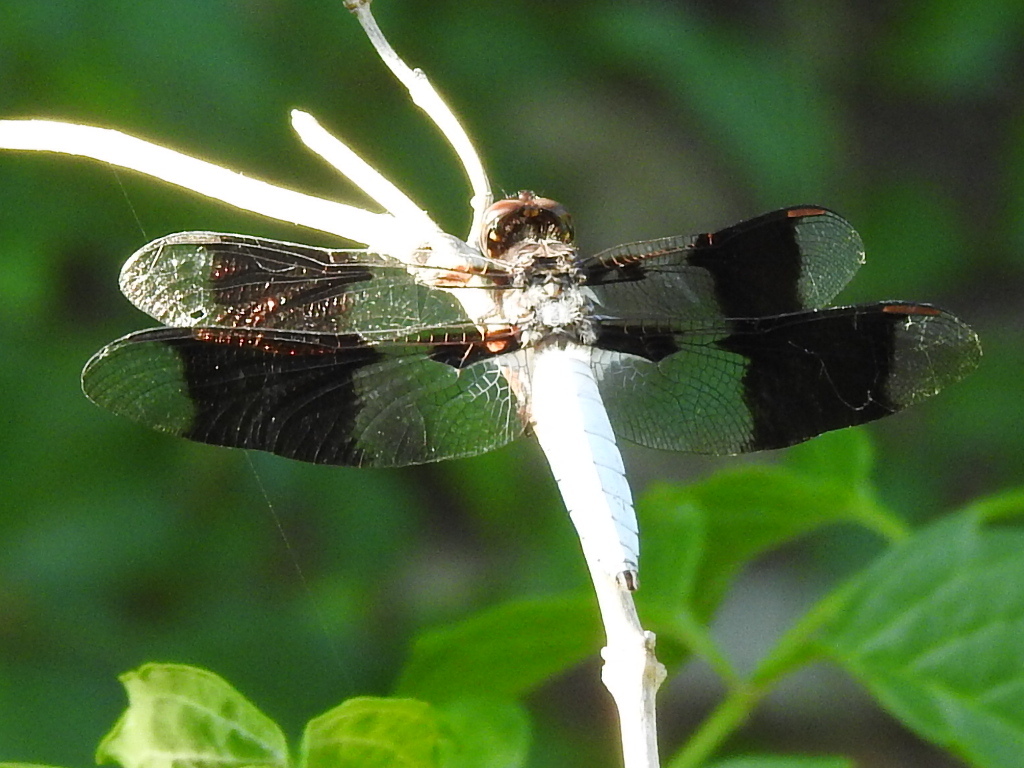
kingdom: Animalia
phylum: Arthropoda
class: Insecta
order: Odonata
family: Libellulidae
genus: Plathemis
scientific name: Plathemis lydia
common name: Common whitetail
